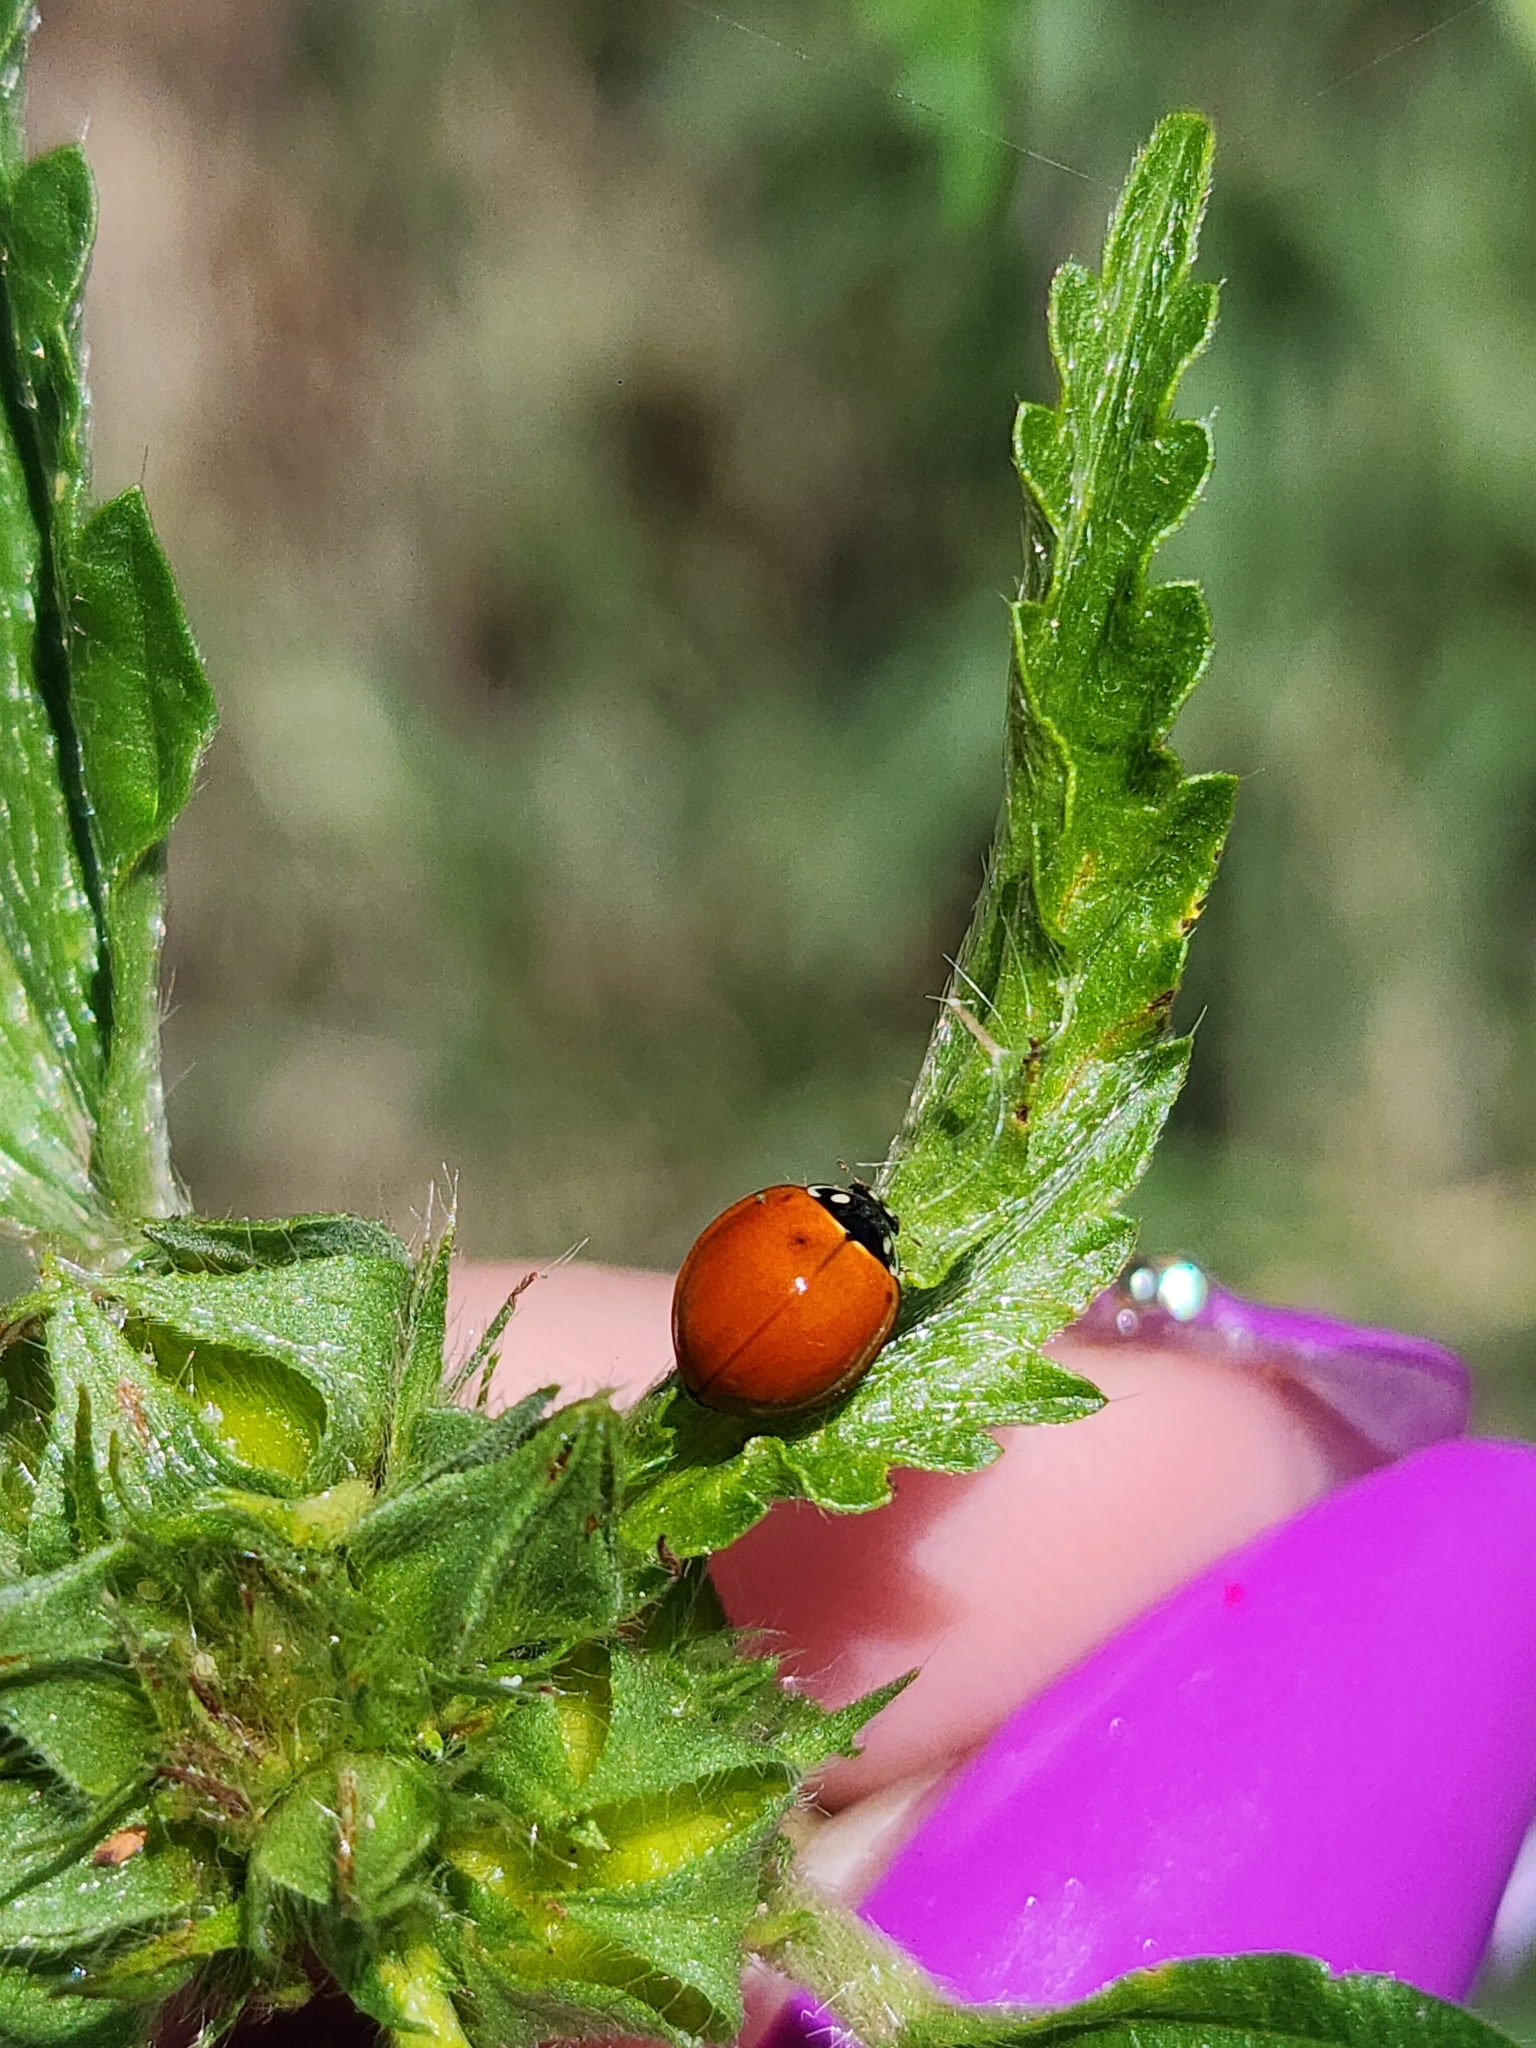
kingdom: Animalia
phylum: Arthropoda
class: Insecta
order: Coleoptera
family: Coccinellidae
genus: Cycloneda
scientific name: Cycloneda sanguinea
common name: Ladybird beetle
